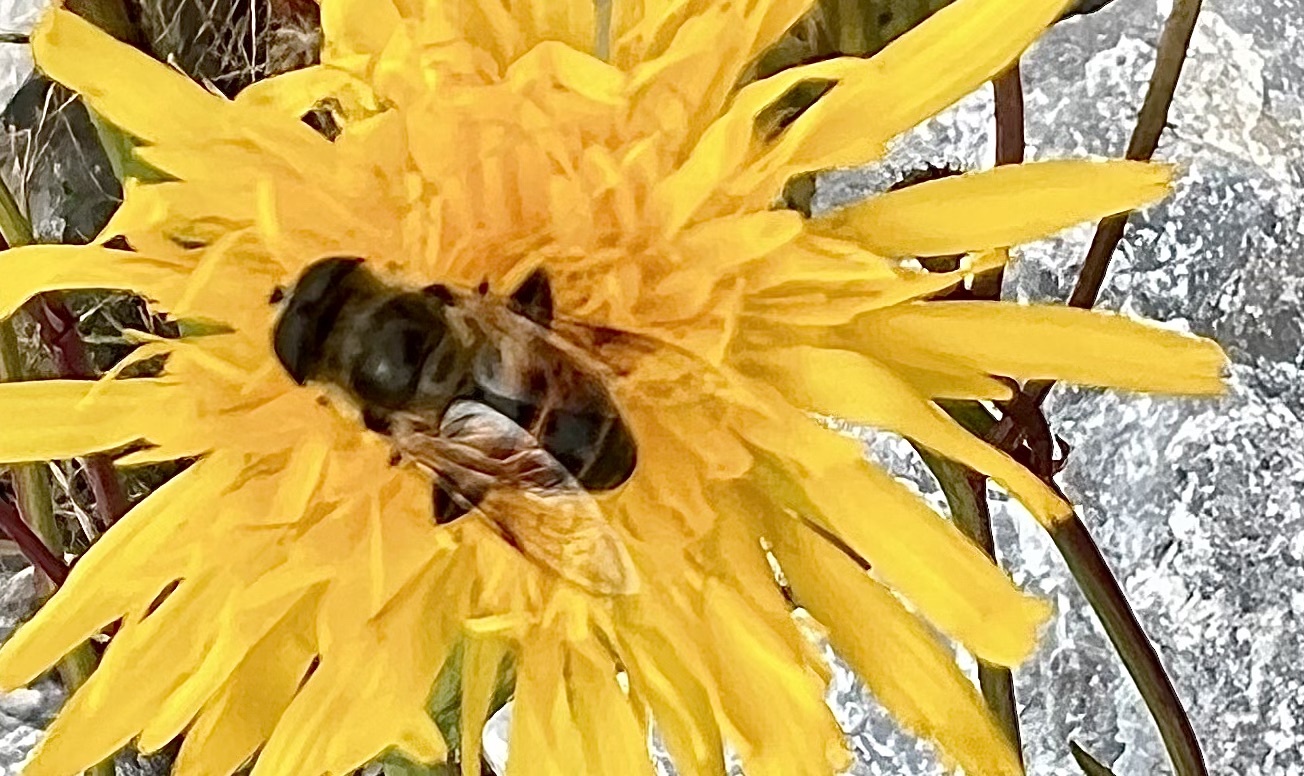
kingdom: Animalia
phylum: Arthropoda
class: Insecta
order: Diptera
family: Syrphidae
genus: Eristalis
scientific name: Eristalis tenax
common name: Drone fly
